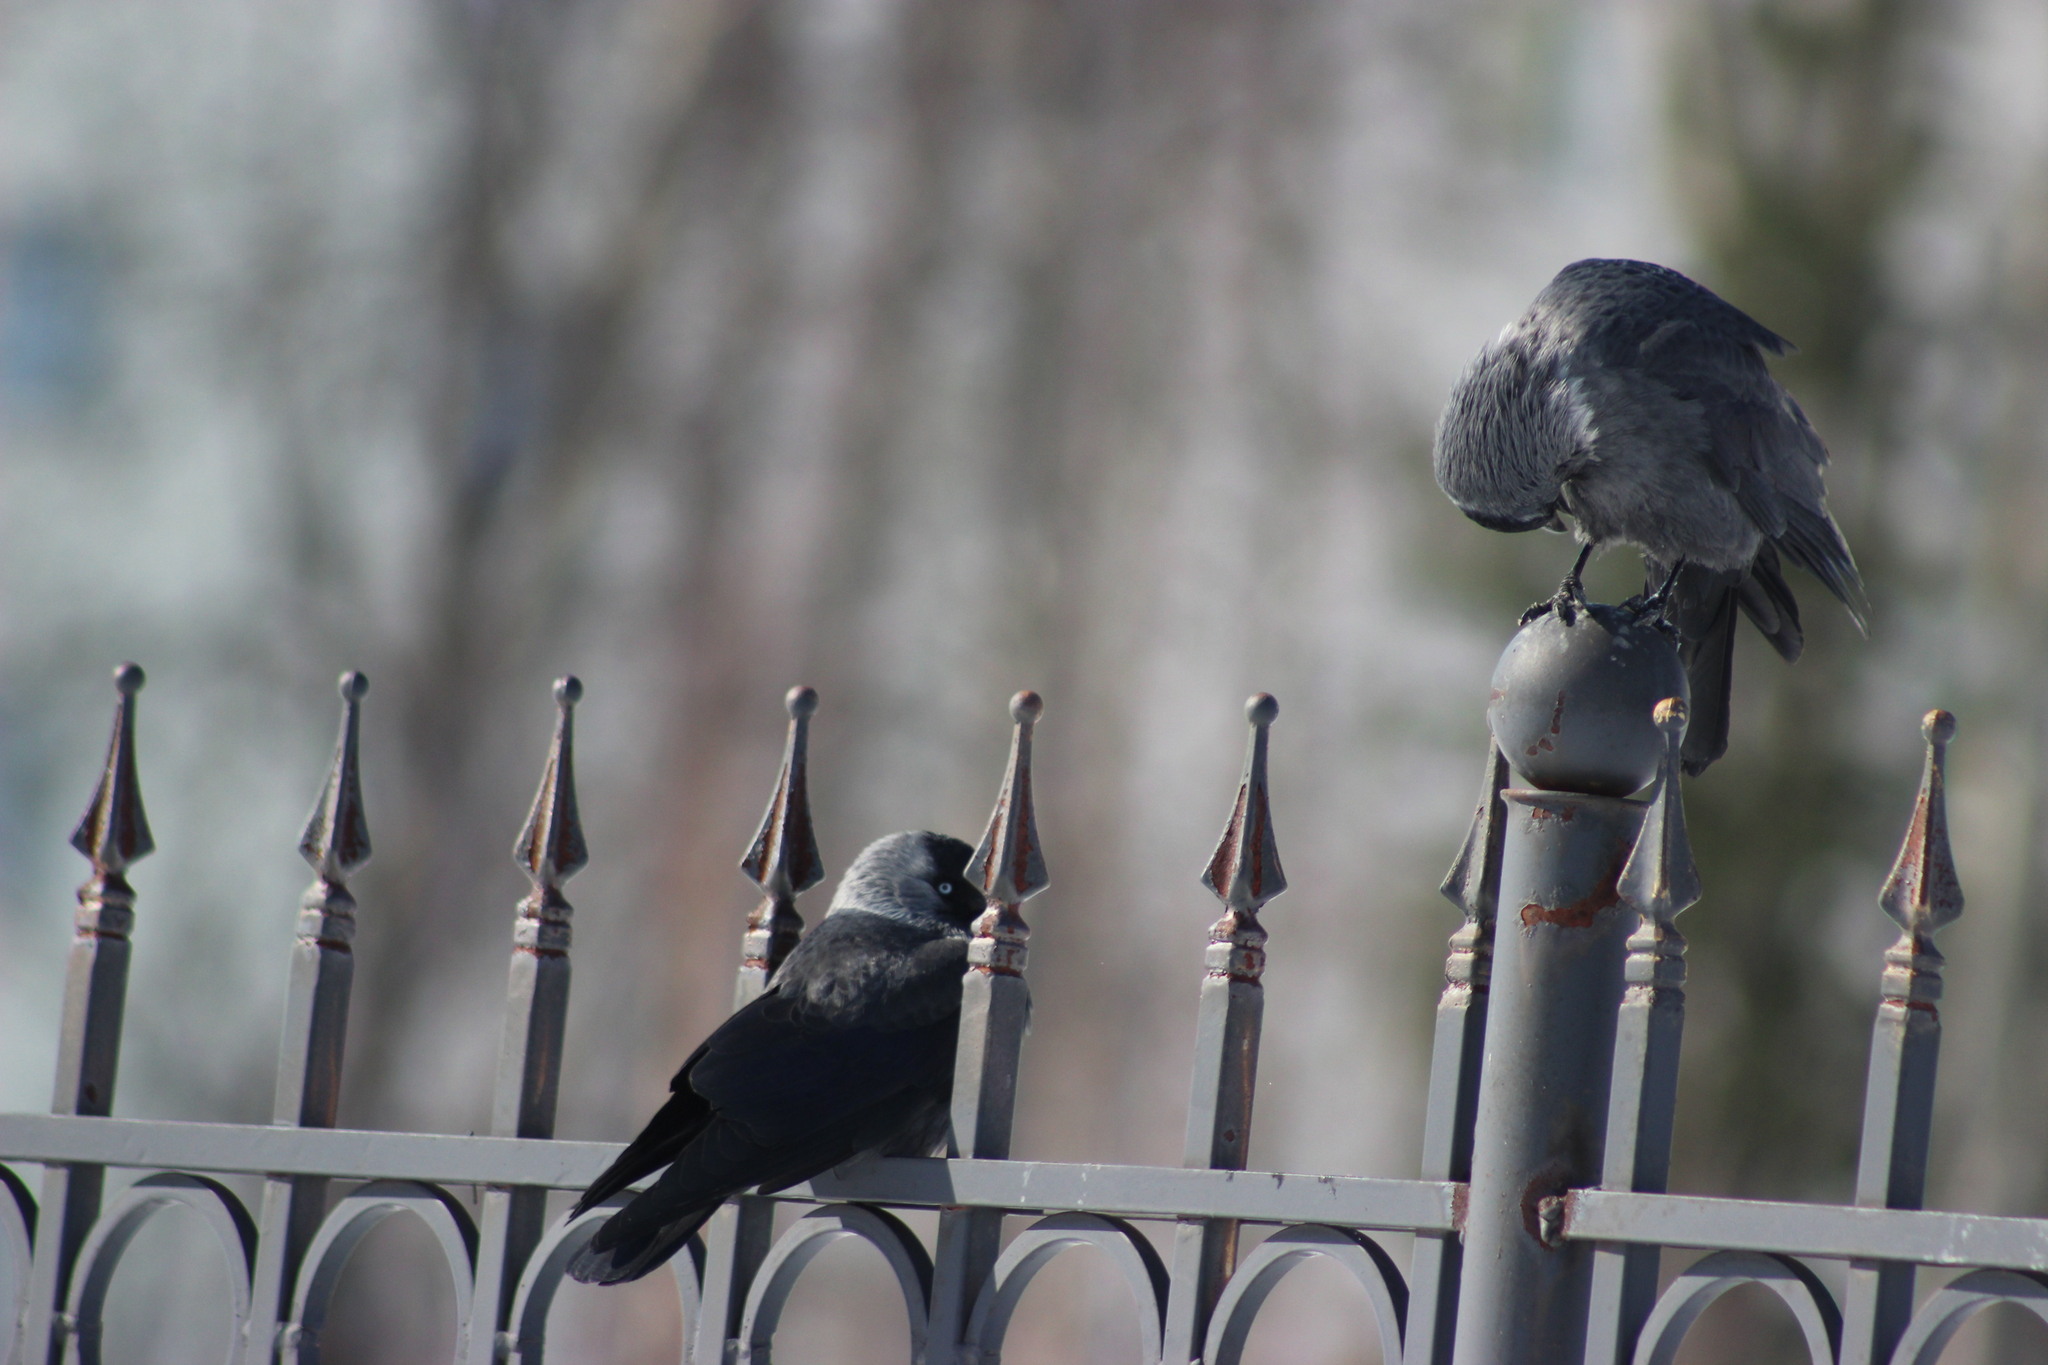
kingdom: Animalia
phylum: Chordata
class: Aves
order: Passeriformes
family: Corvidae
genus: Coloeus
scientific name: Coloeus monedula
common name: Western jackdaw
